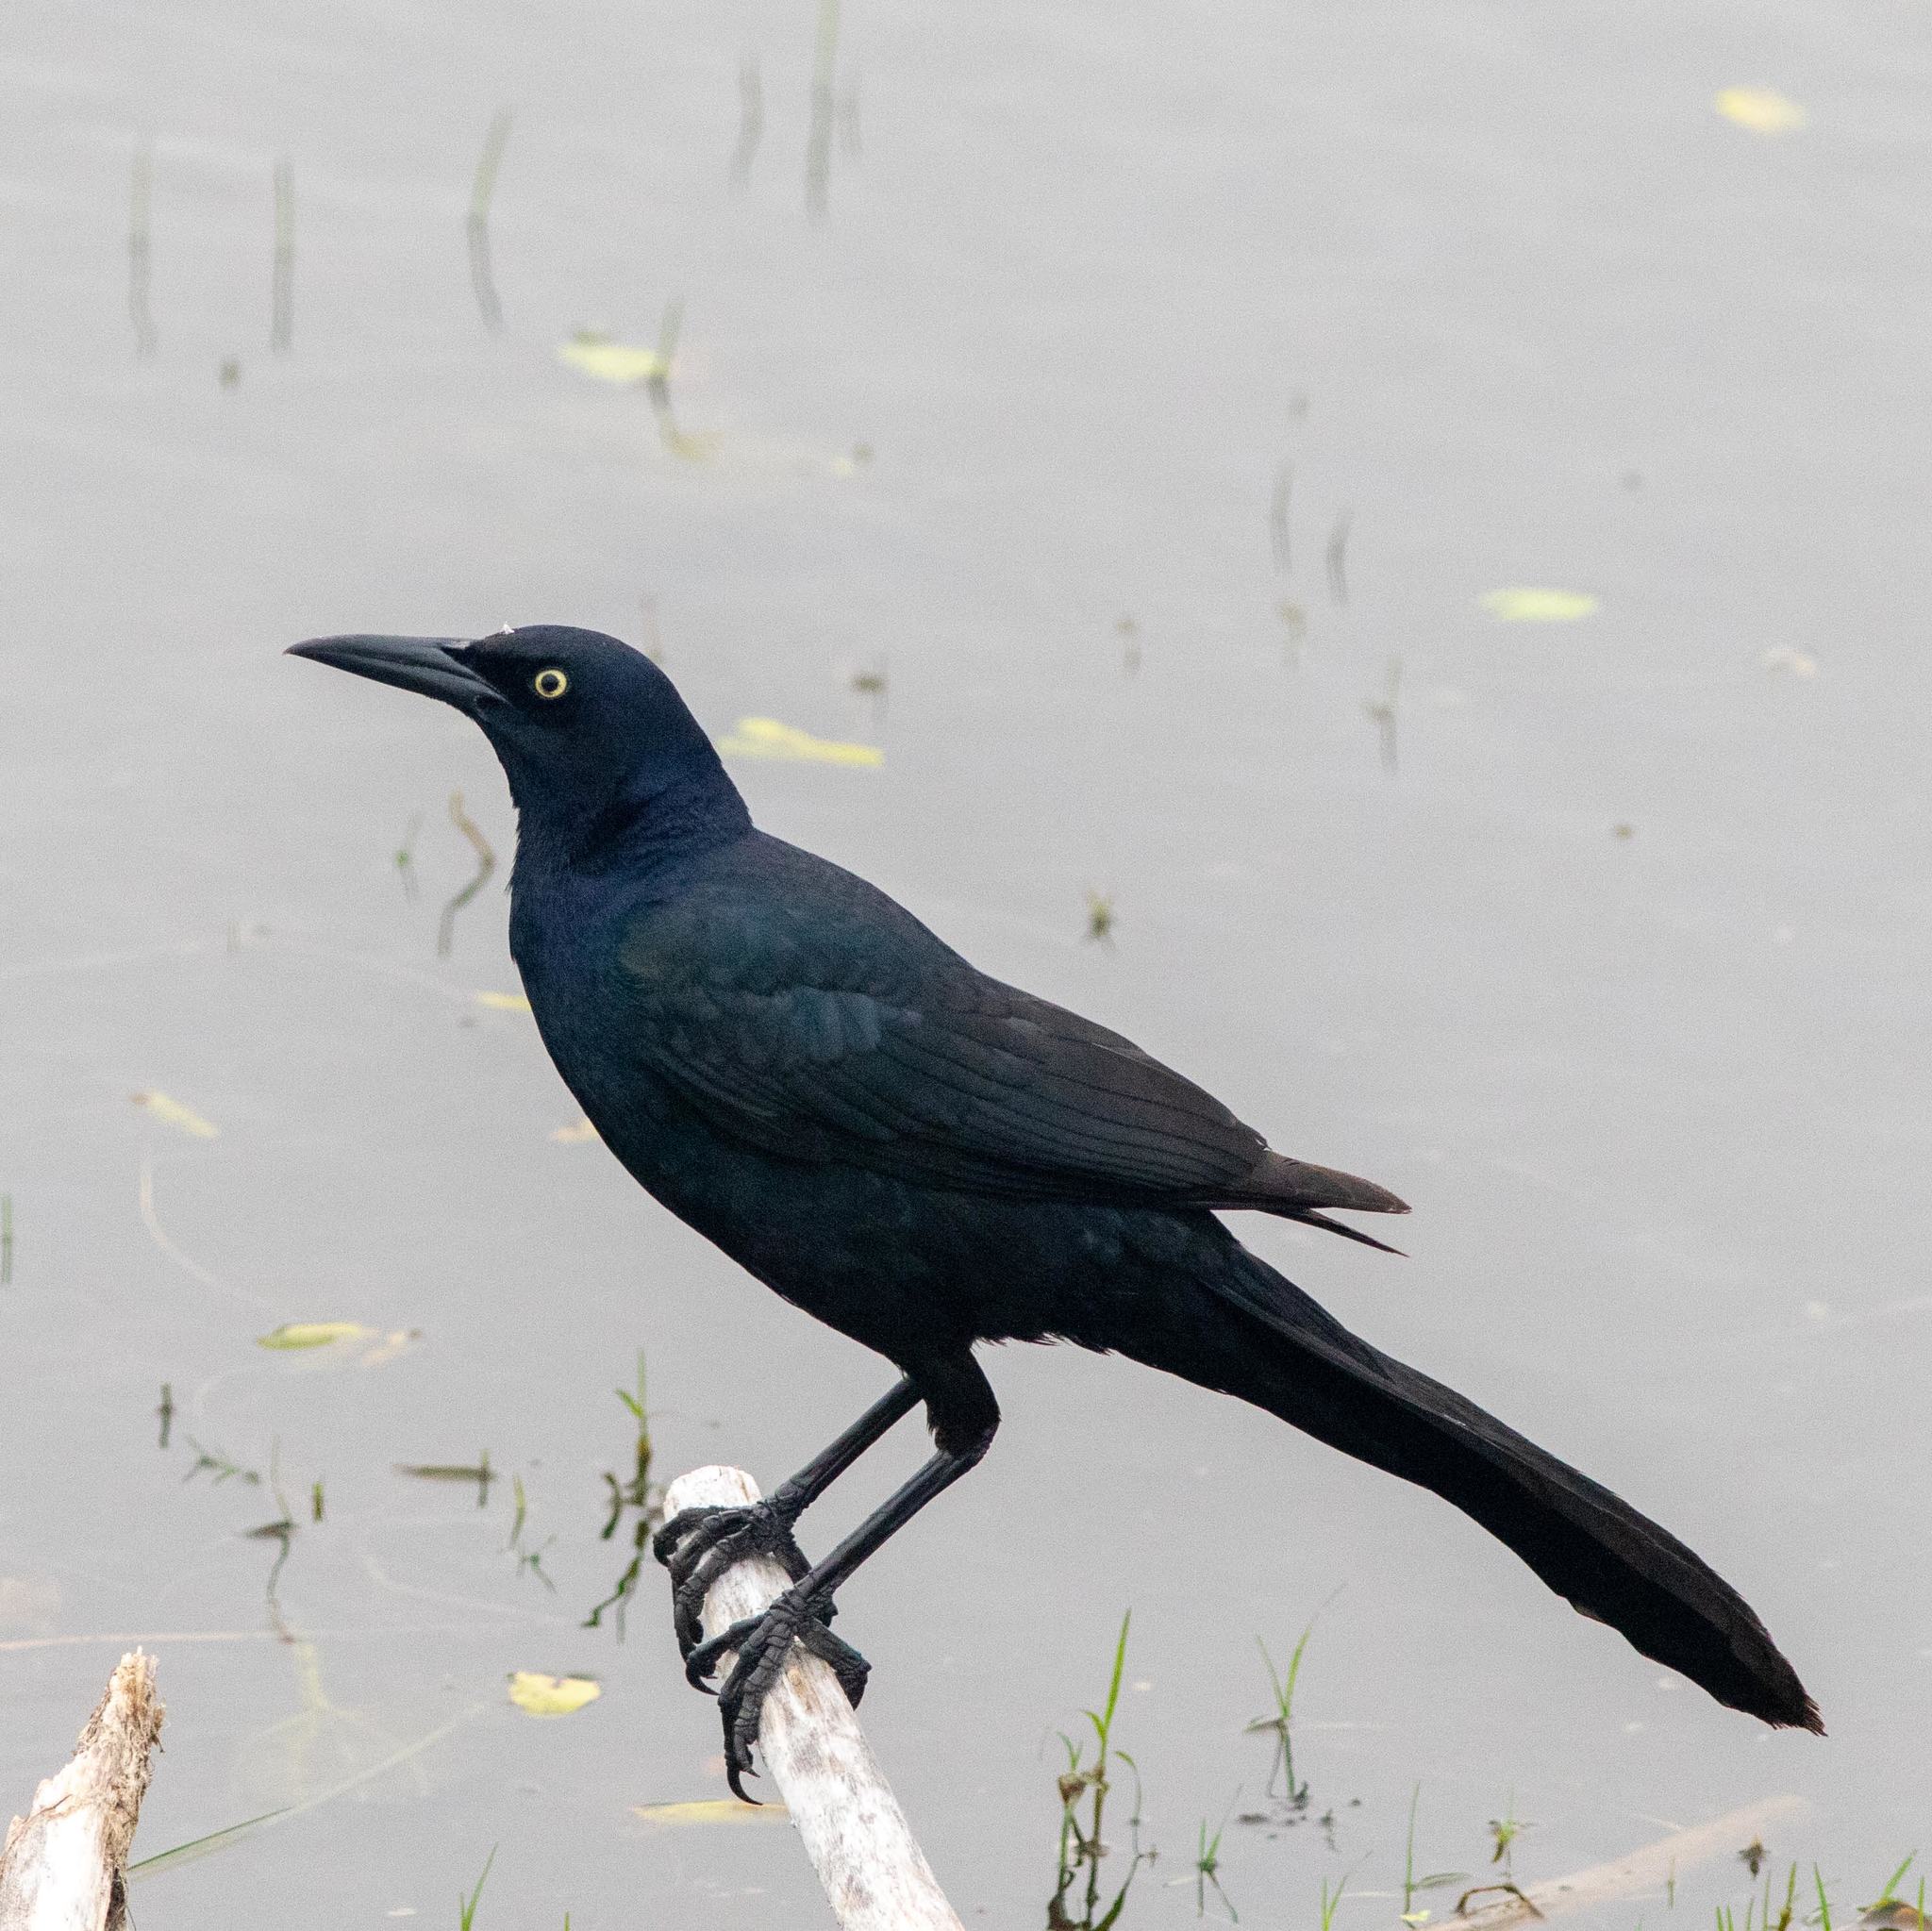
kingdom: Animalia
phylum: Chordata
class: Aves
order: Passeriformes
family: Icteridae
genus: Quiscalus
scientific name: Quiscalus mexicanus
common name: Great-tailed grackle
